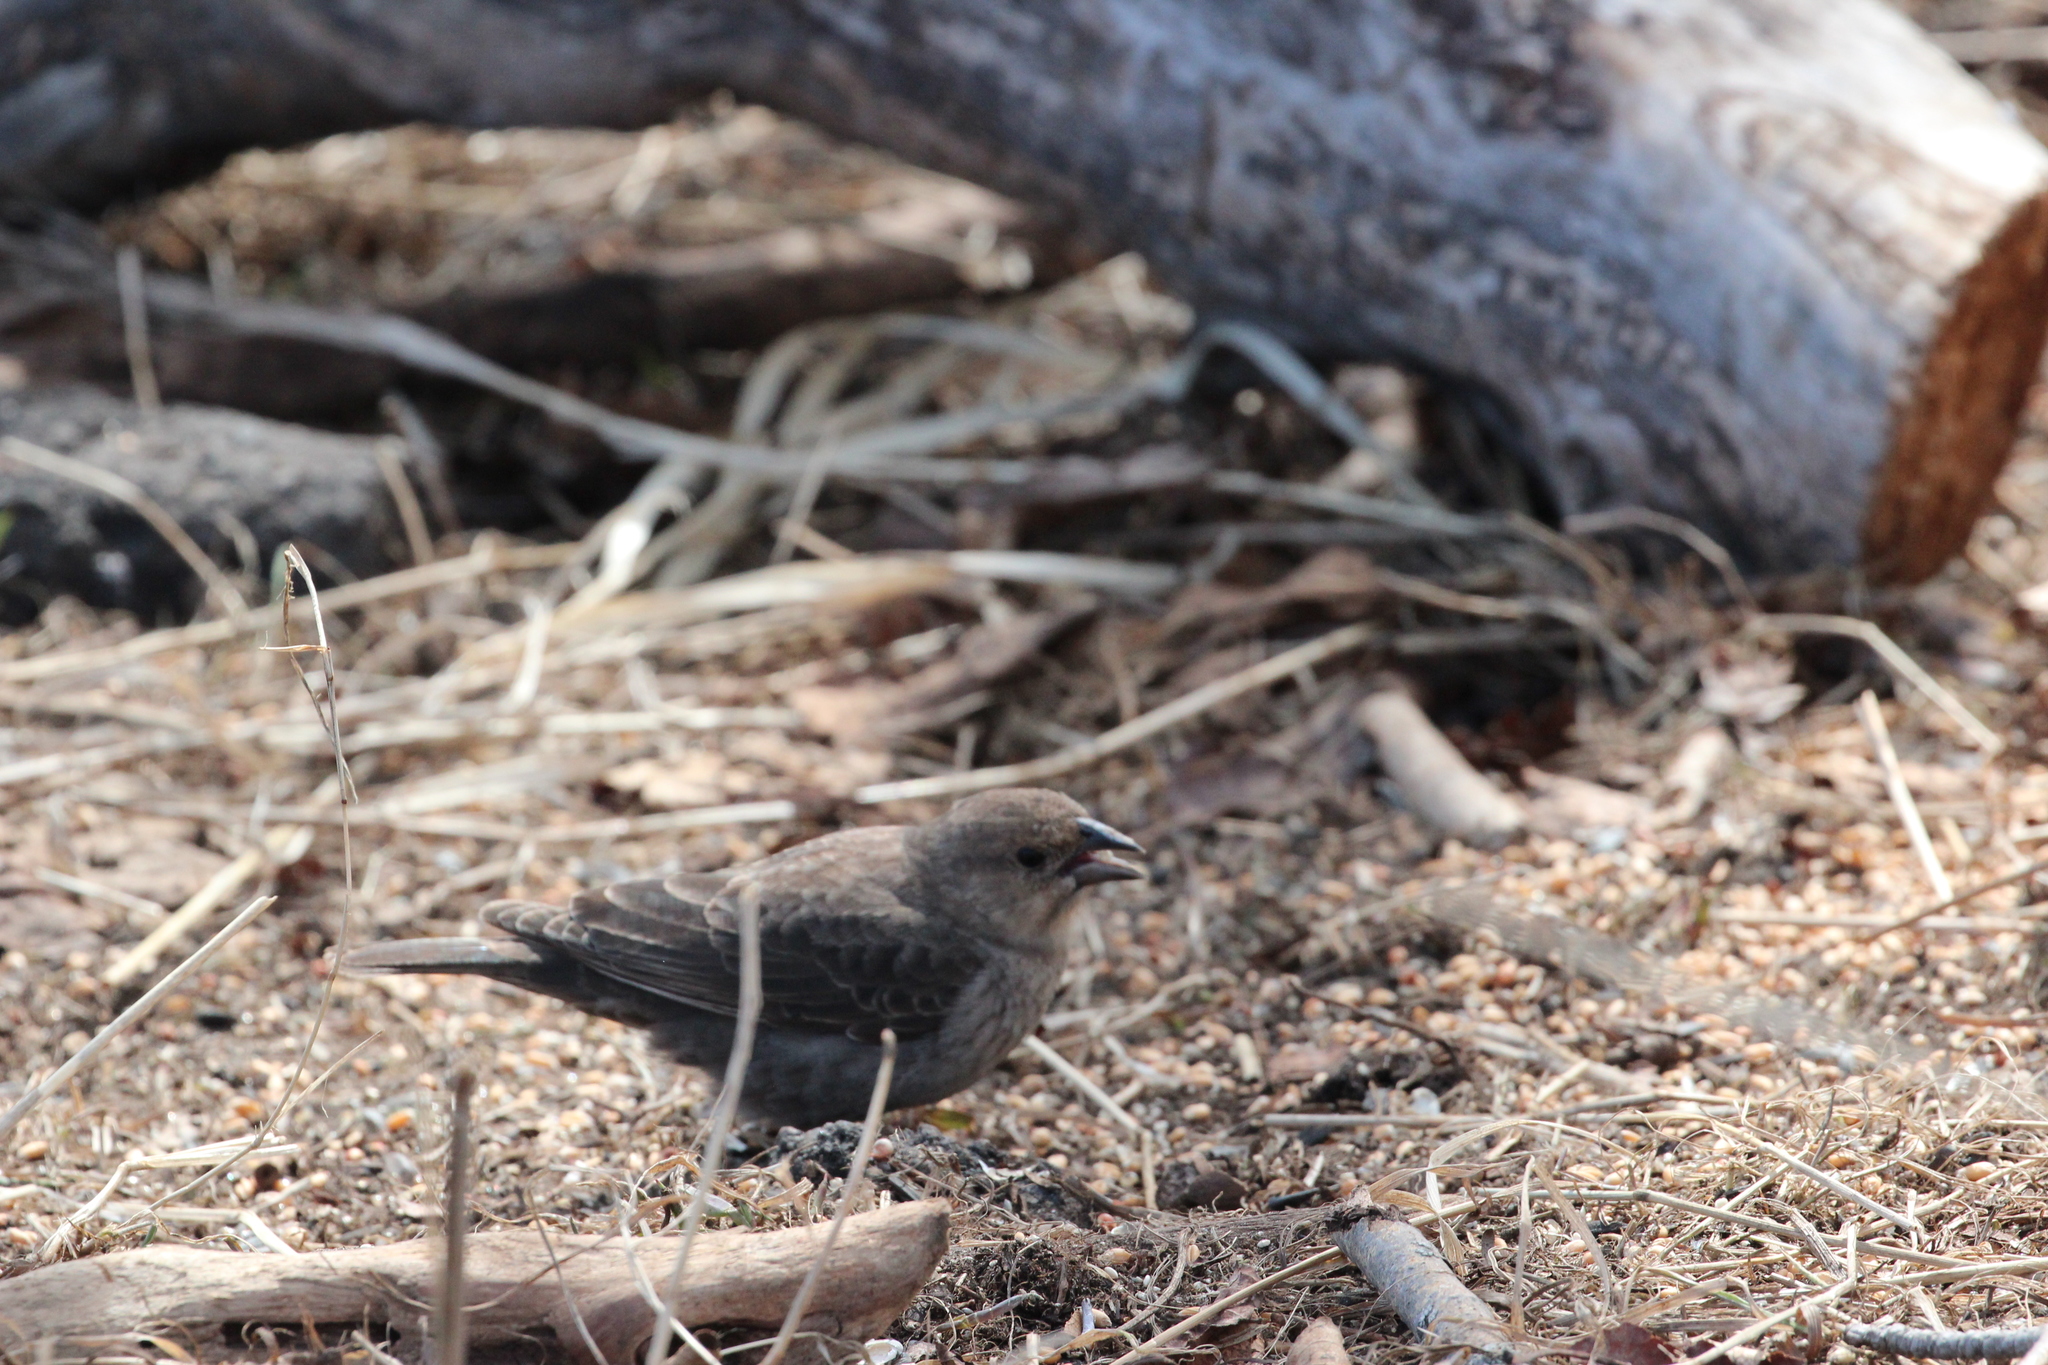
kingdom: Animalia
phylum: Chordata
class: Aves
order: Passeriformes
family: Icteridae
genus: Molothrus
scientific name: Molothrus ater
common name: Brown-headed cowbird
